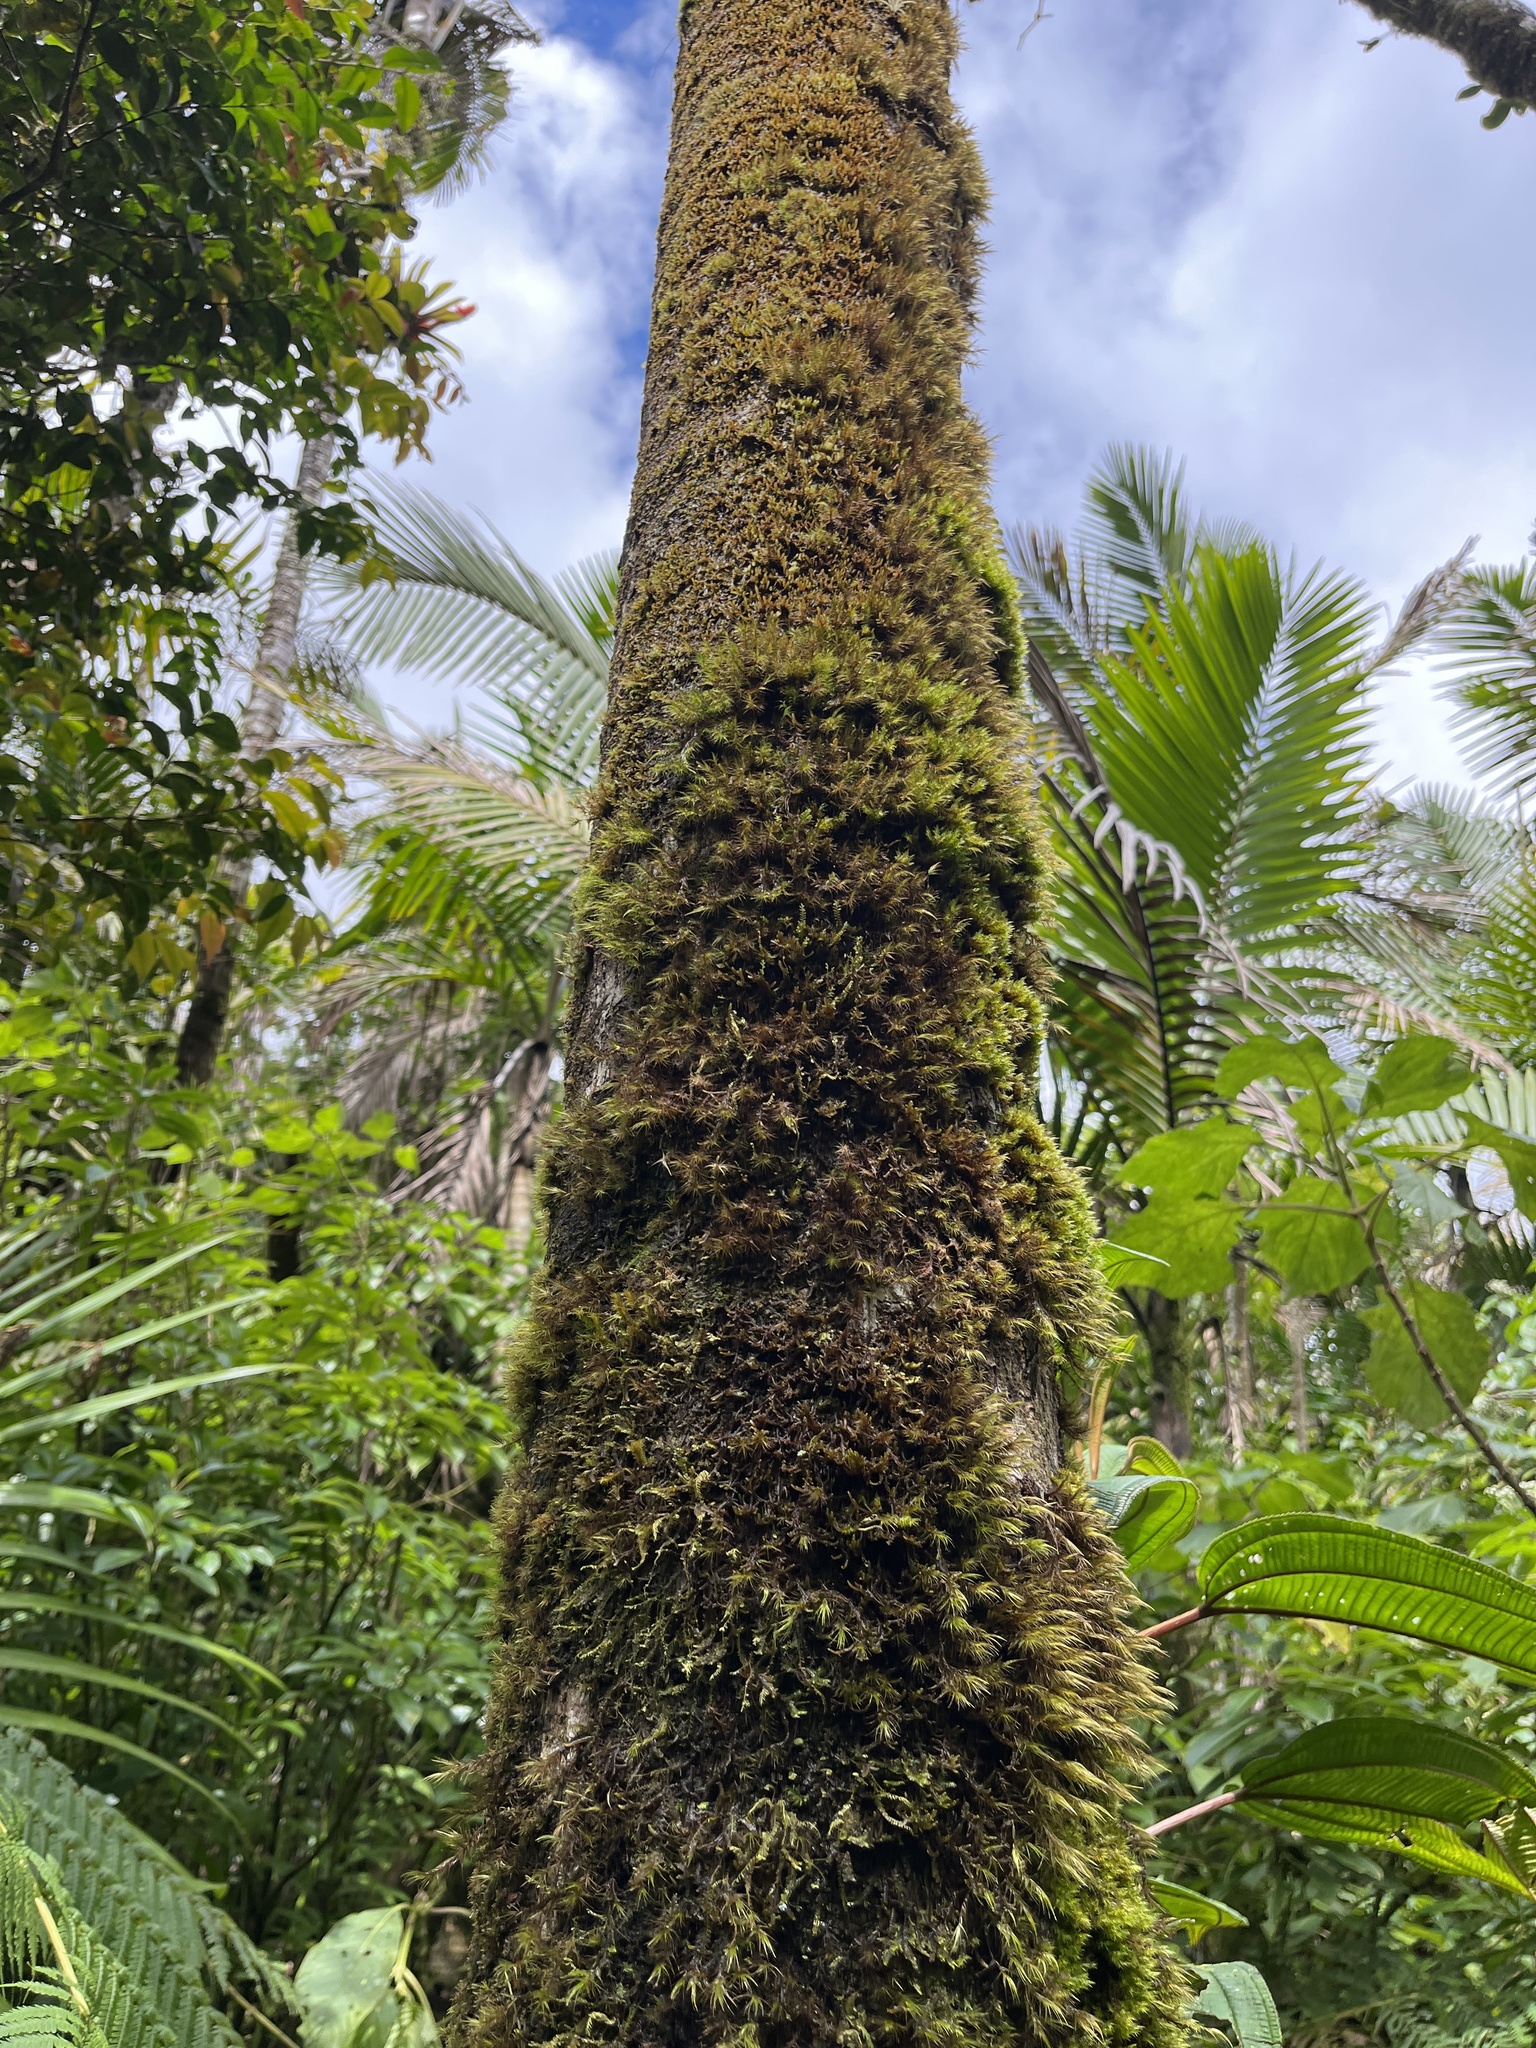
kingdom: Plantae
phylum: Bryophyta
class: Bryopsida
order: Rhizogoniales
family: Calomniaceae
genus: Pyrrhobryum
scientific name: Pyrrhobryum spiniforme
